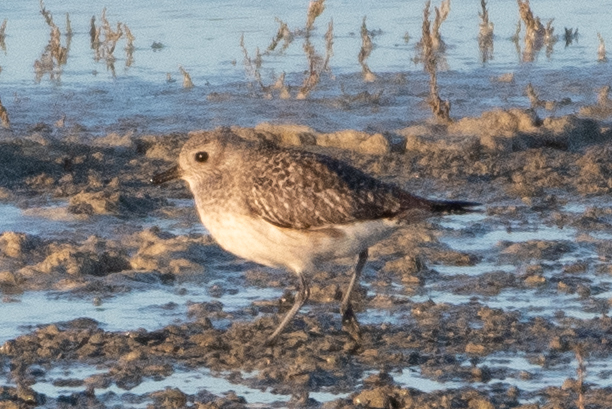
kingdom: Animalia
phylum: Chordata
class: Aves
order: Charadriiformes
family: Charadriidae
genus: Pluvialis
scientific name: Pluvialis squatarola
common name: Grey plover
